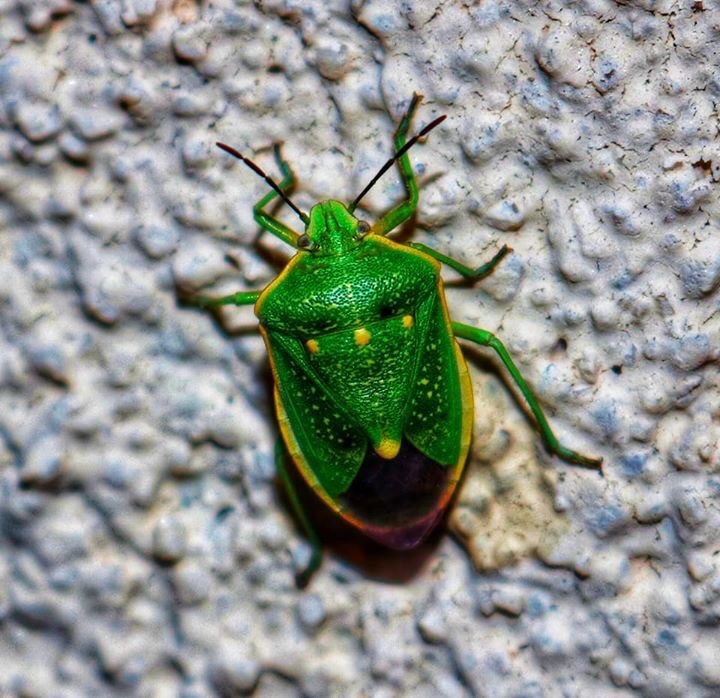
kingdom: Animalia
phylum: Arthropoda
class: Insecta
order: Hemiptera
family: Pentatomidae
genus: Chlorochroa
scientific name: Chlorochroa sayi
